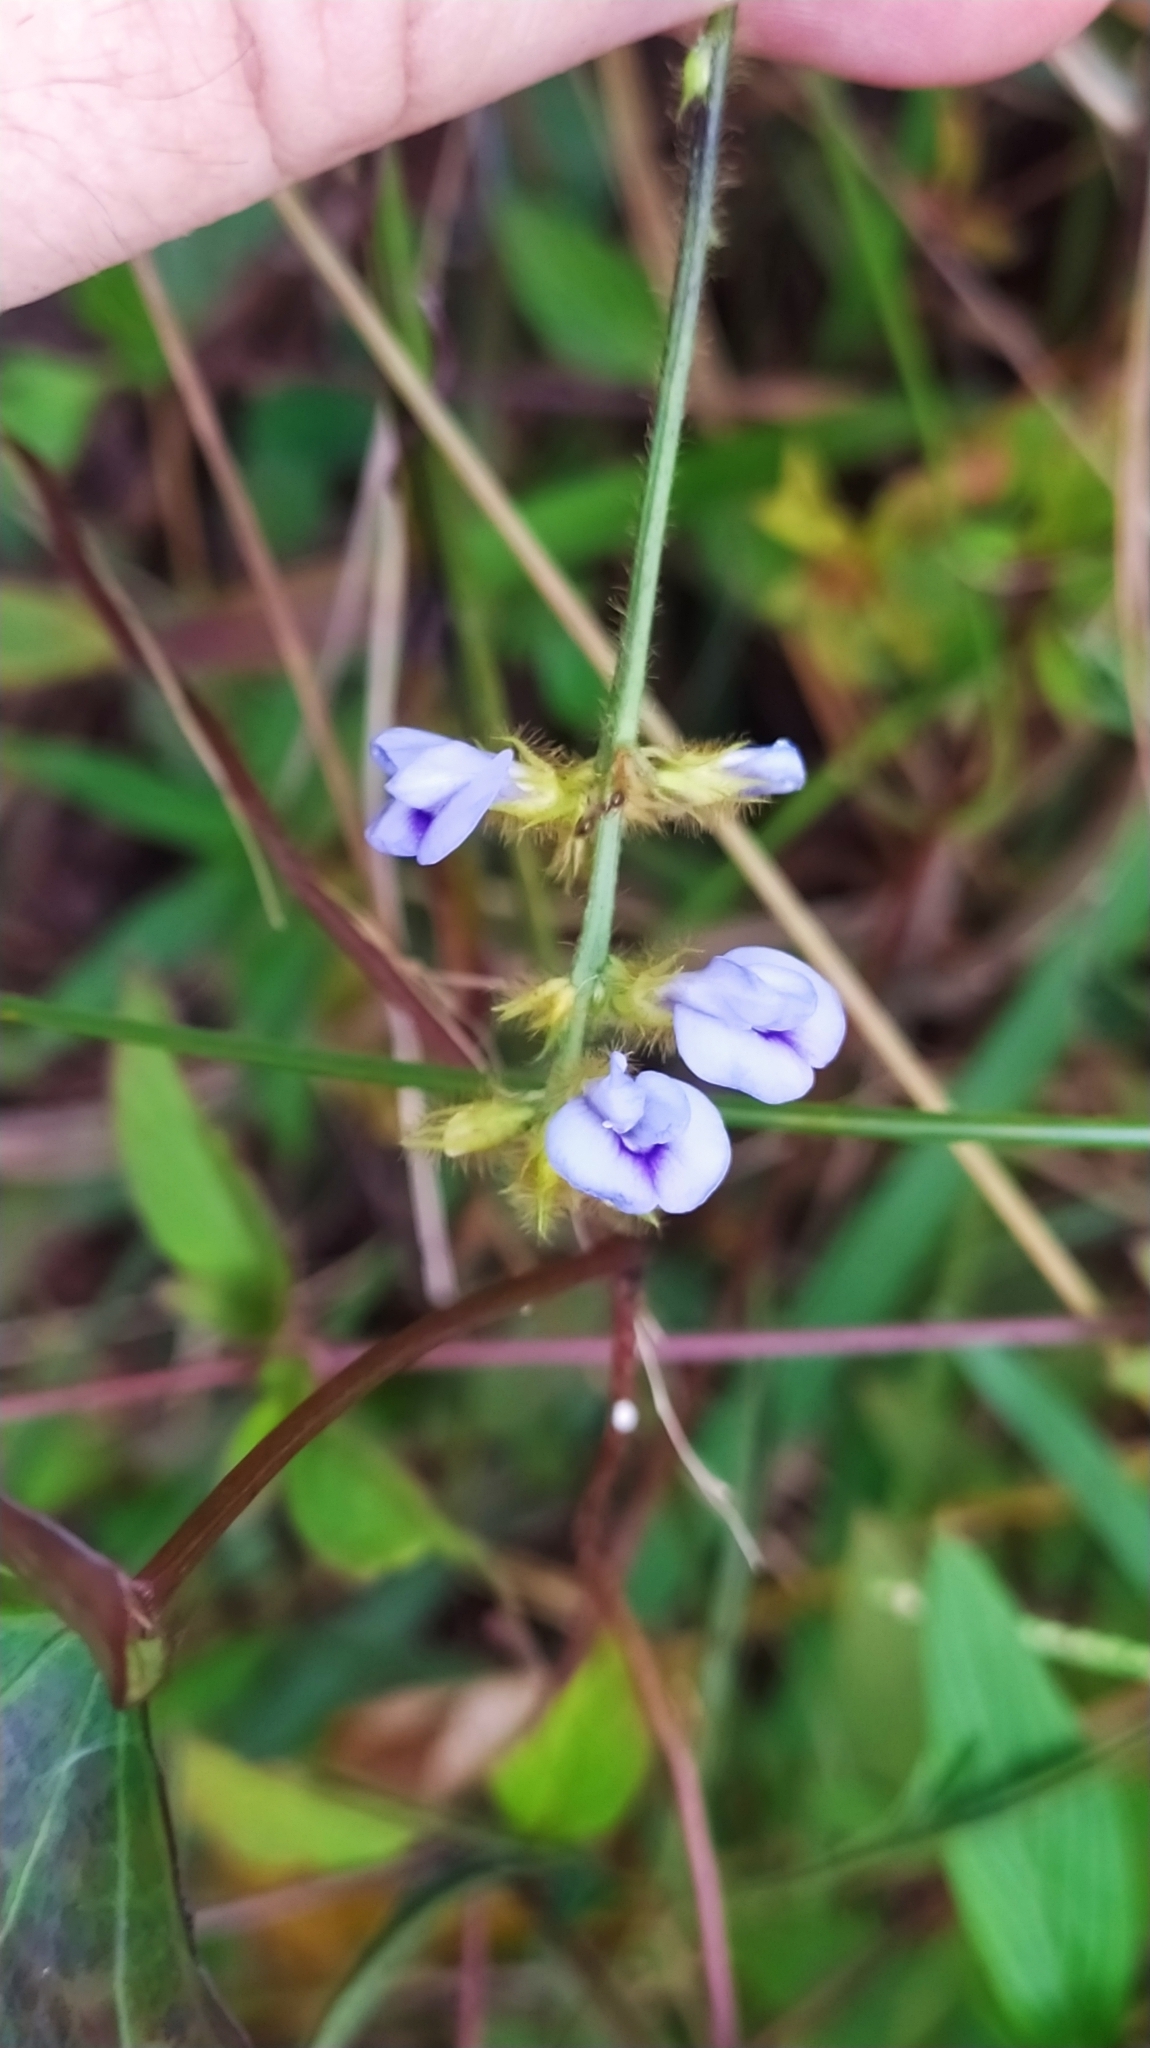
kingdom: Plantae
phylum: Tracheophyta
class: Magnoliopsida
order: Fabales
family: Fabaceae
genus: Calopogonium
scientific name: Calopogonium mucunoides
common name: Calopo
